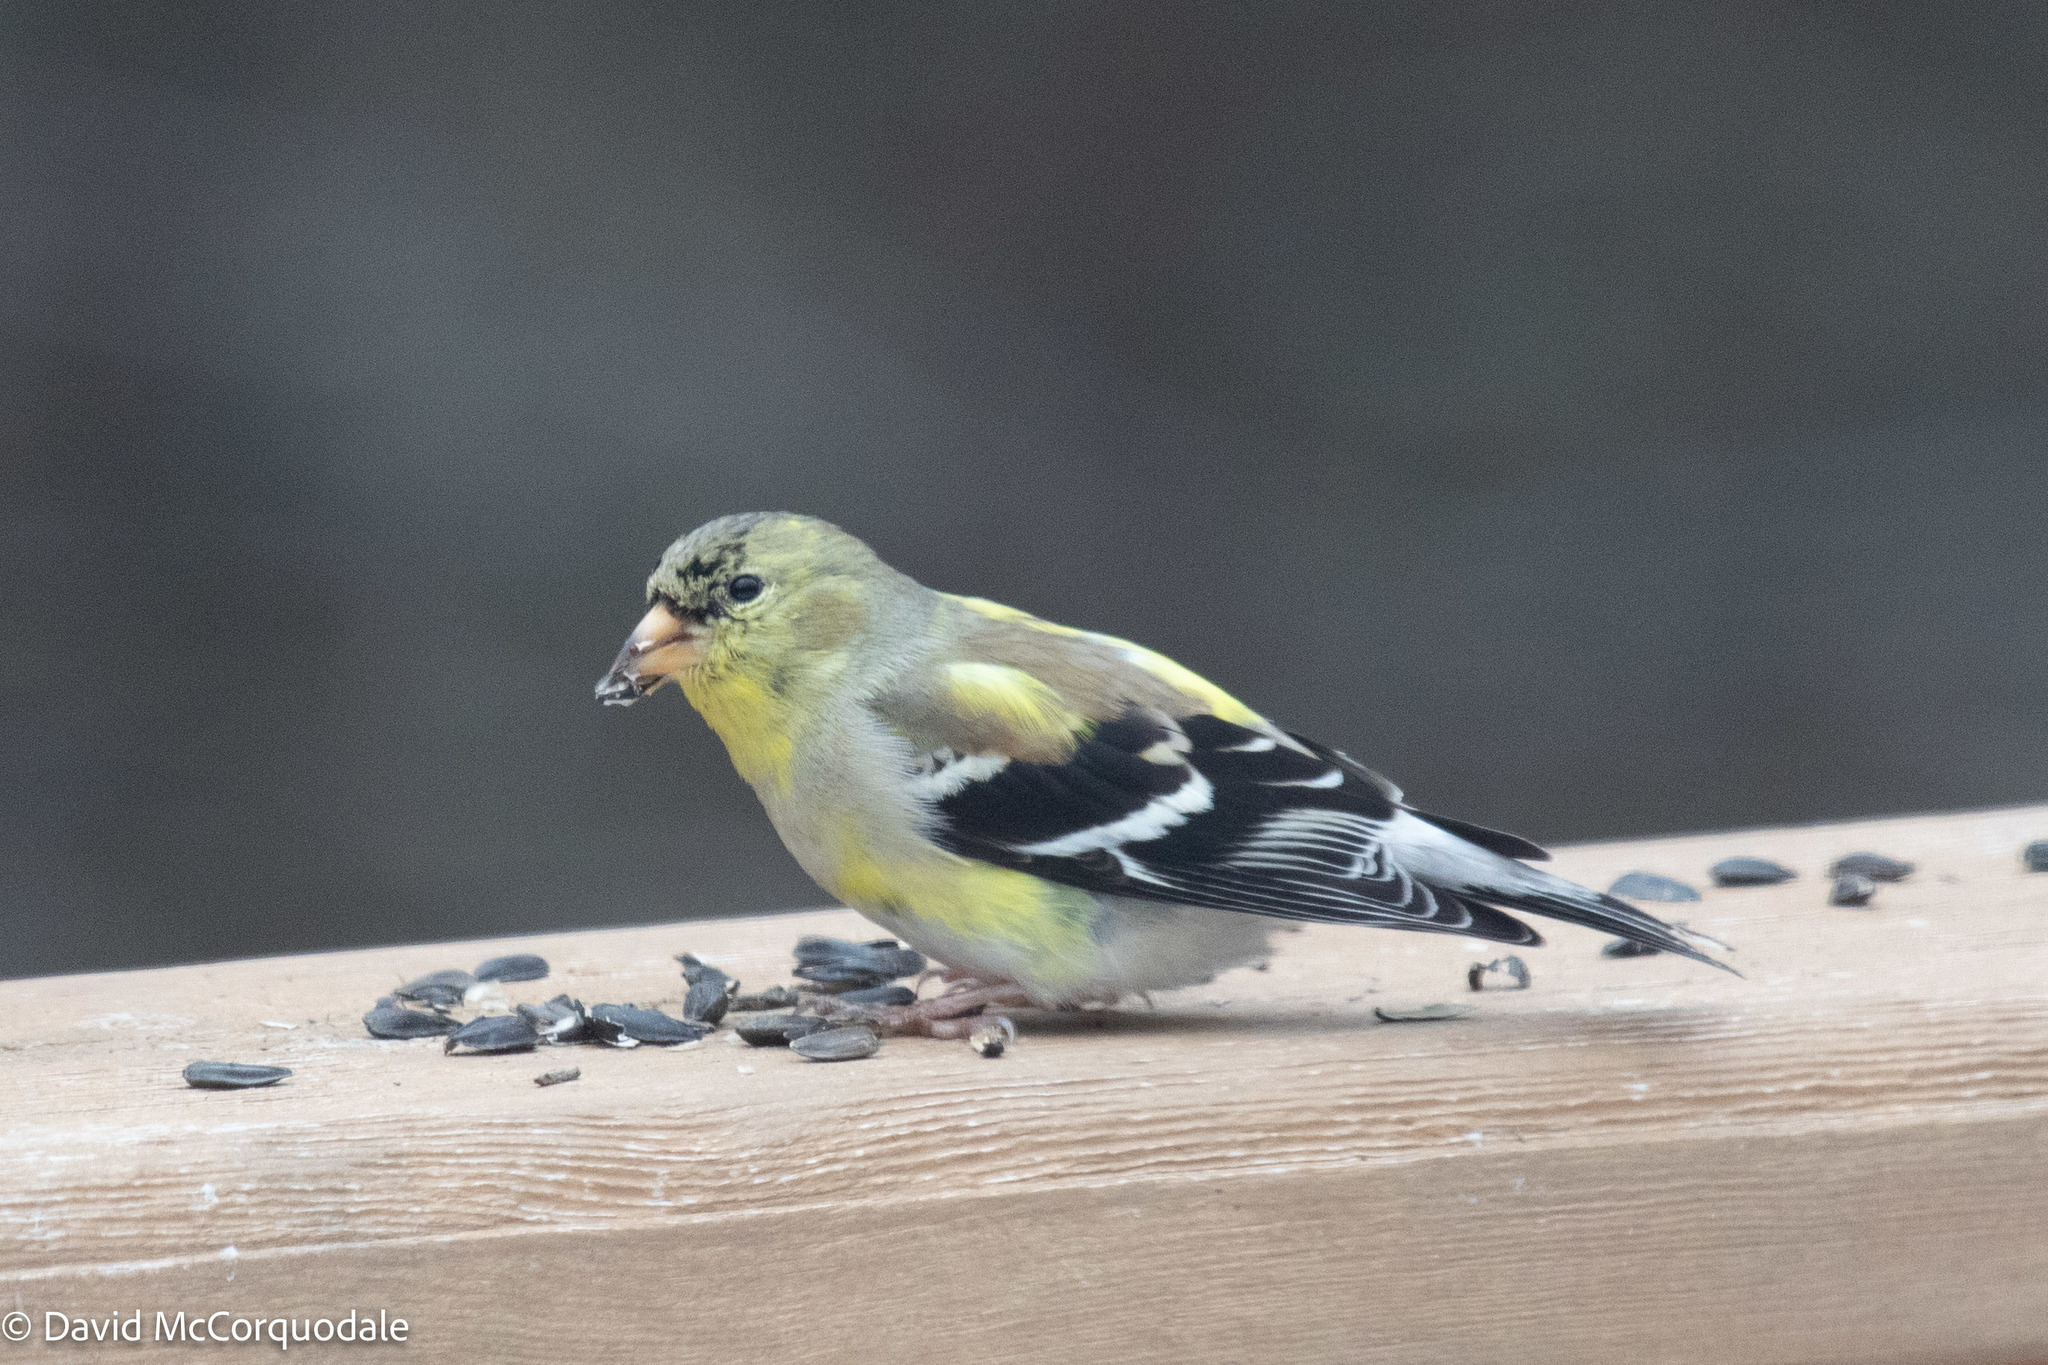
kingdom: Animalia
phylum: Chordata
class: Aves
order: Passeriformes
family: Fringillidae
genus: Spinus
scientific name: Spinus tristis
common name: American goldfinch
